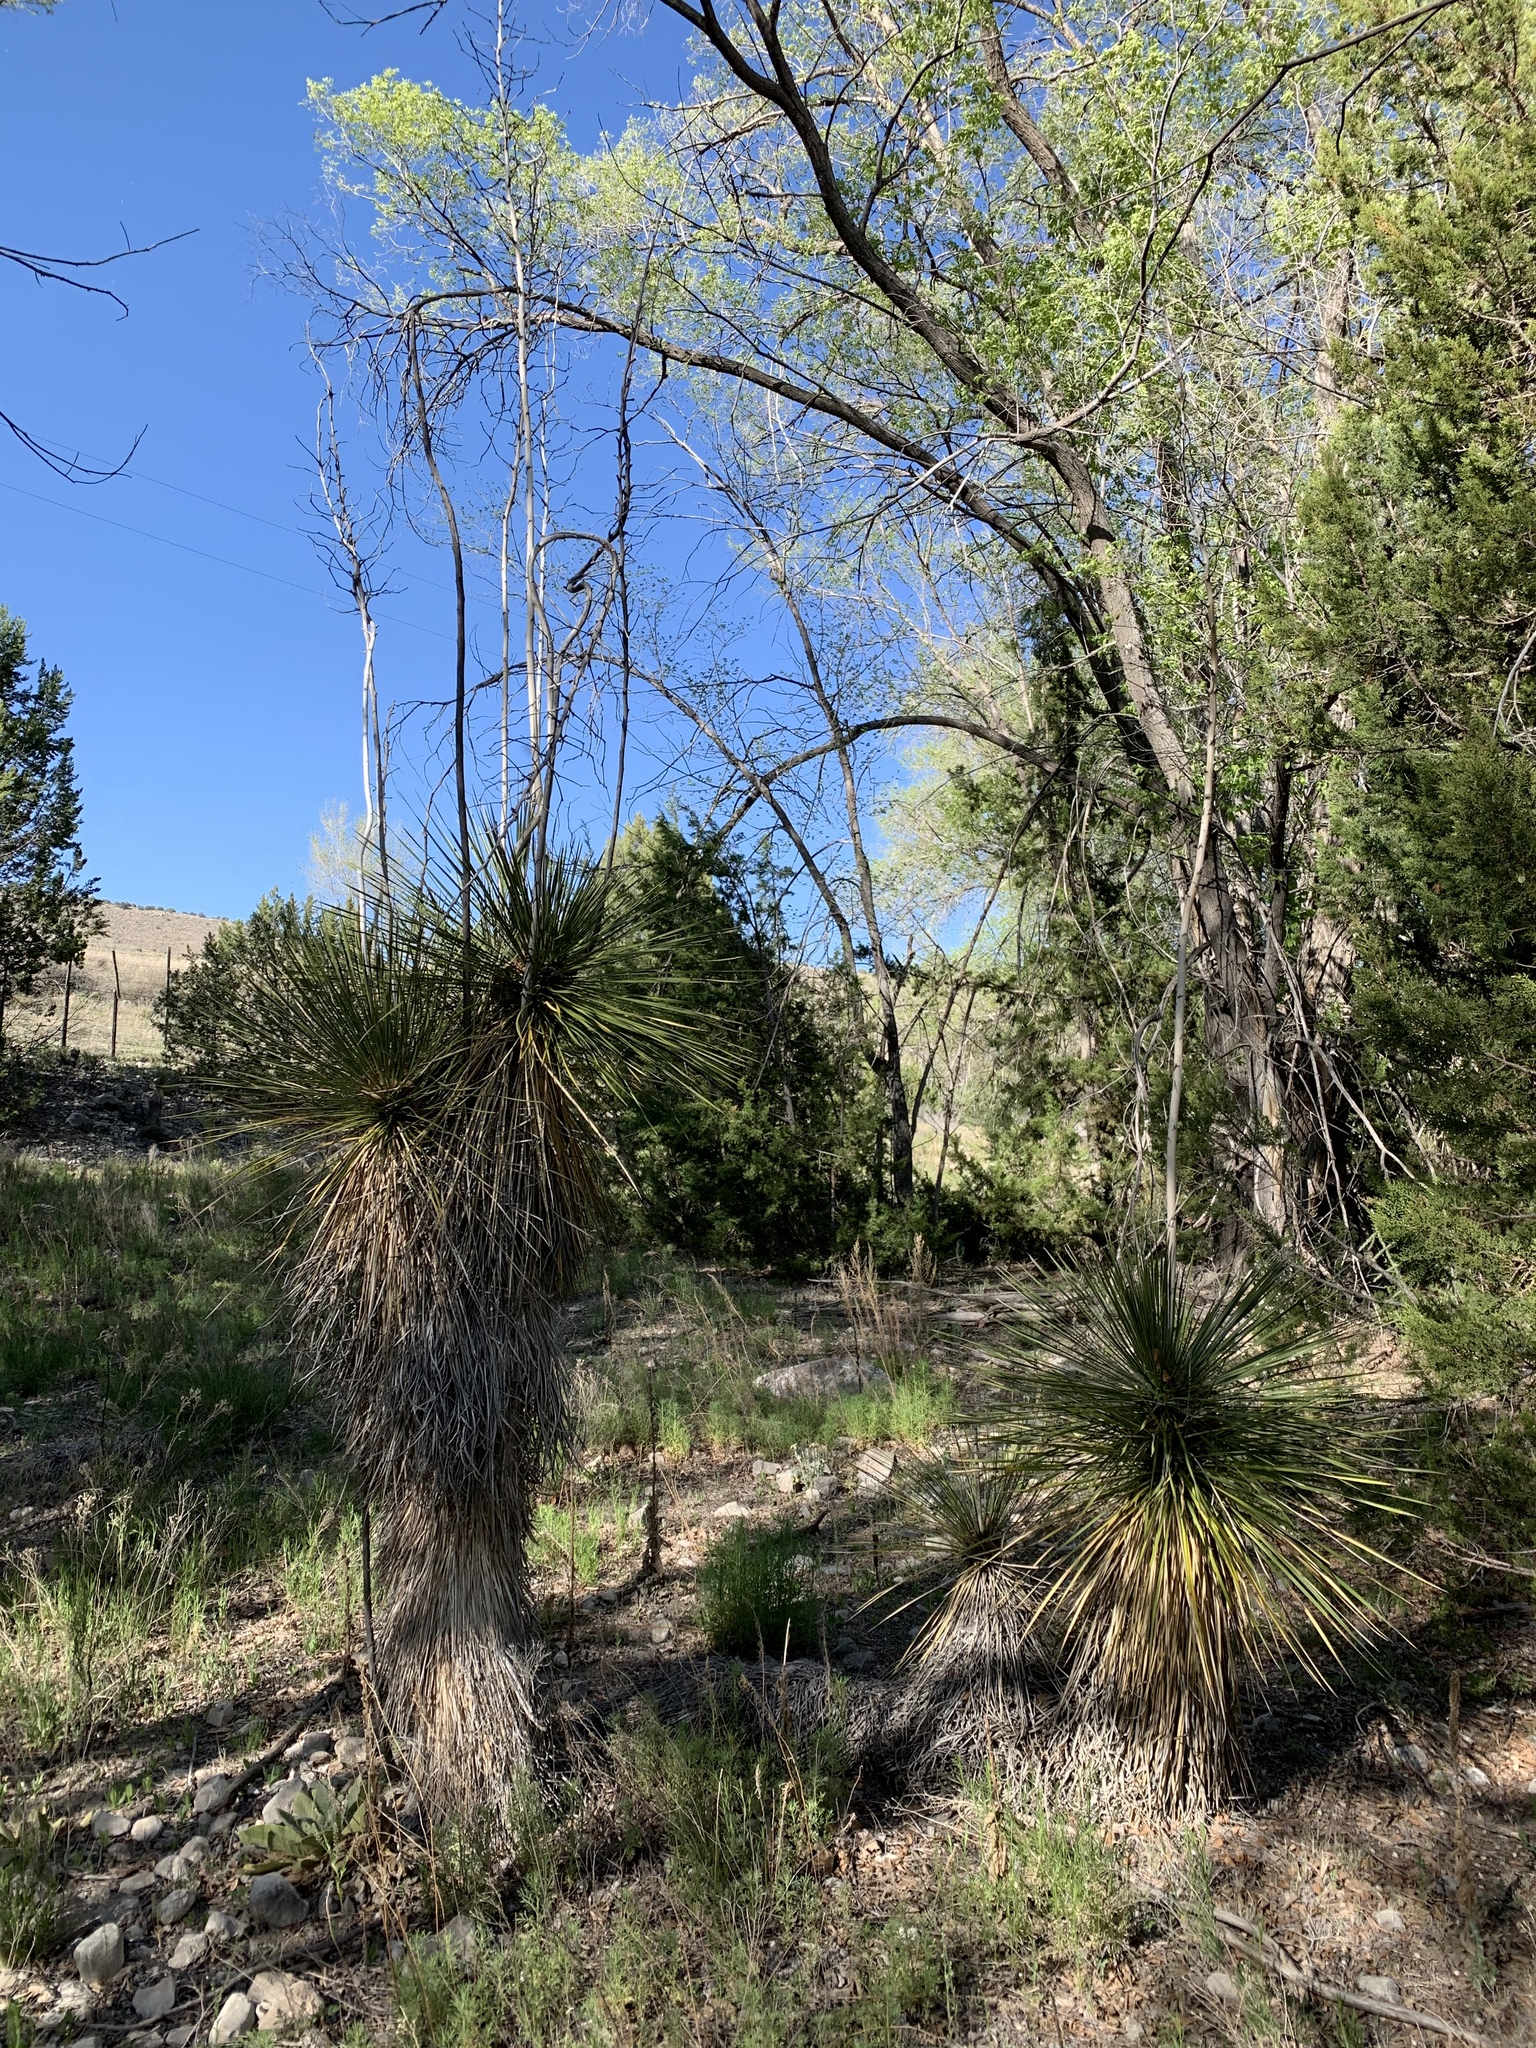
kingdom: Plantae
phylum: Tracheophyta
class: Liliopsida
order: Asparagales
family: Asparagaceae
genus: Yucca
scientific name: Yucca elata
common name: Palmella
